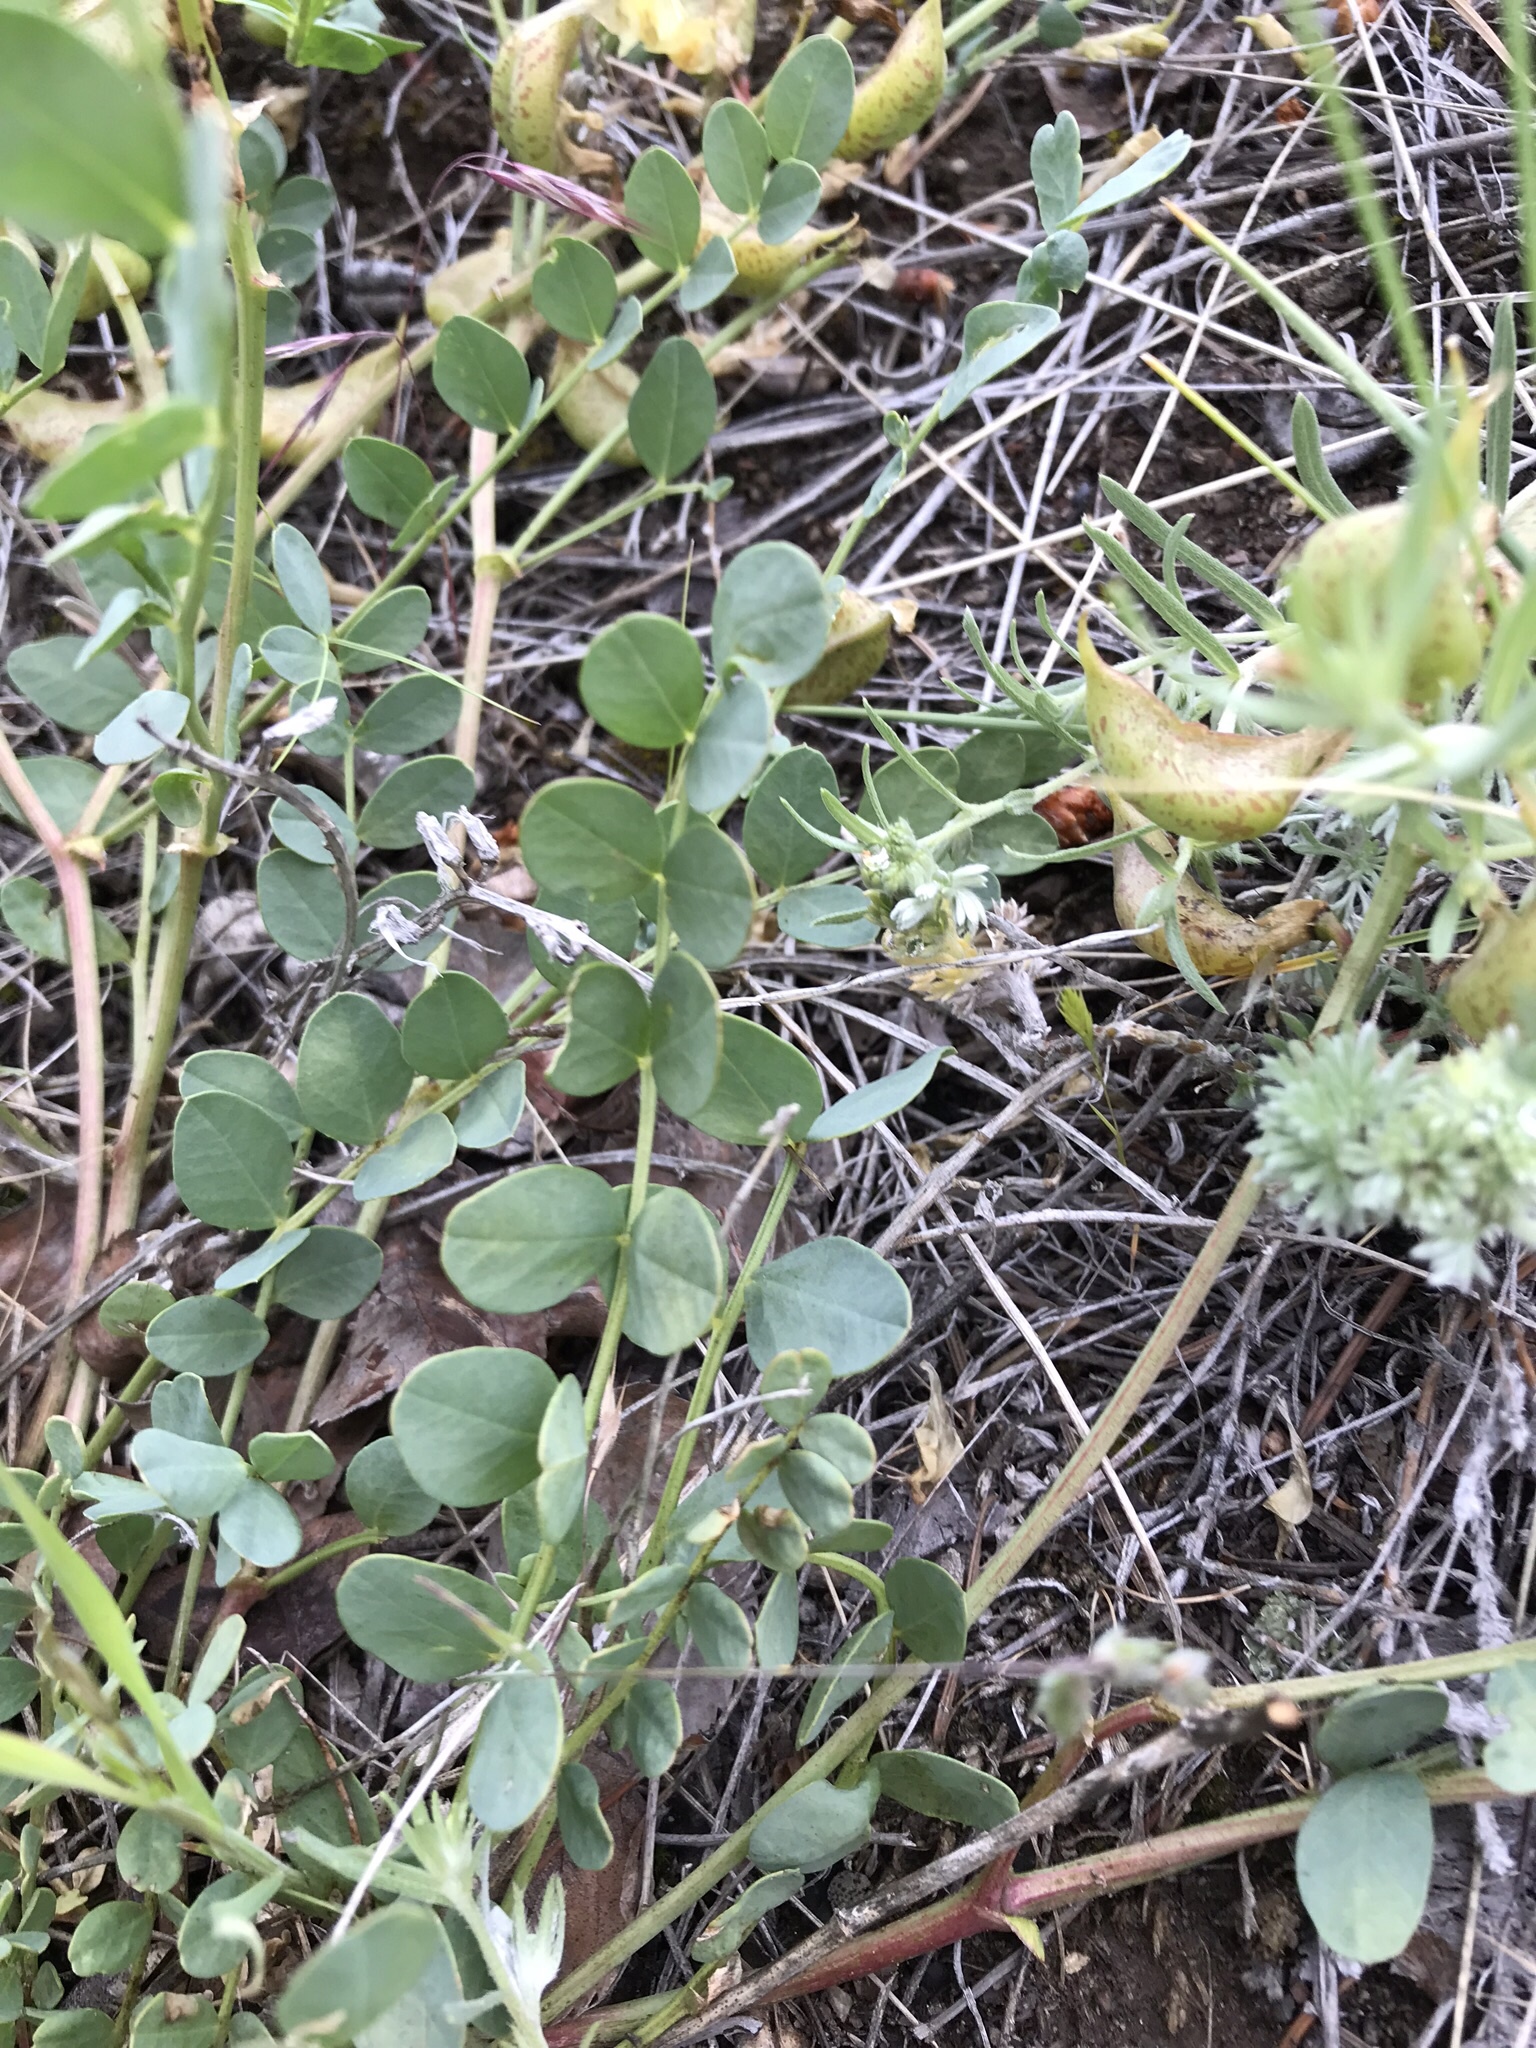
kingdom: Plantae
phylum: Tracheophyta
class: Magnoliopsida
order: Fabales
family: Fabaceae
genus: Astragalus
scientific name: Astragalus beckwithii
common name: Beckwith's milk-vetch
